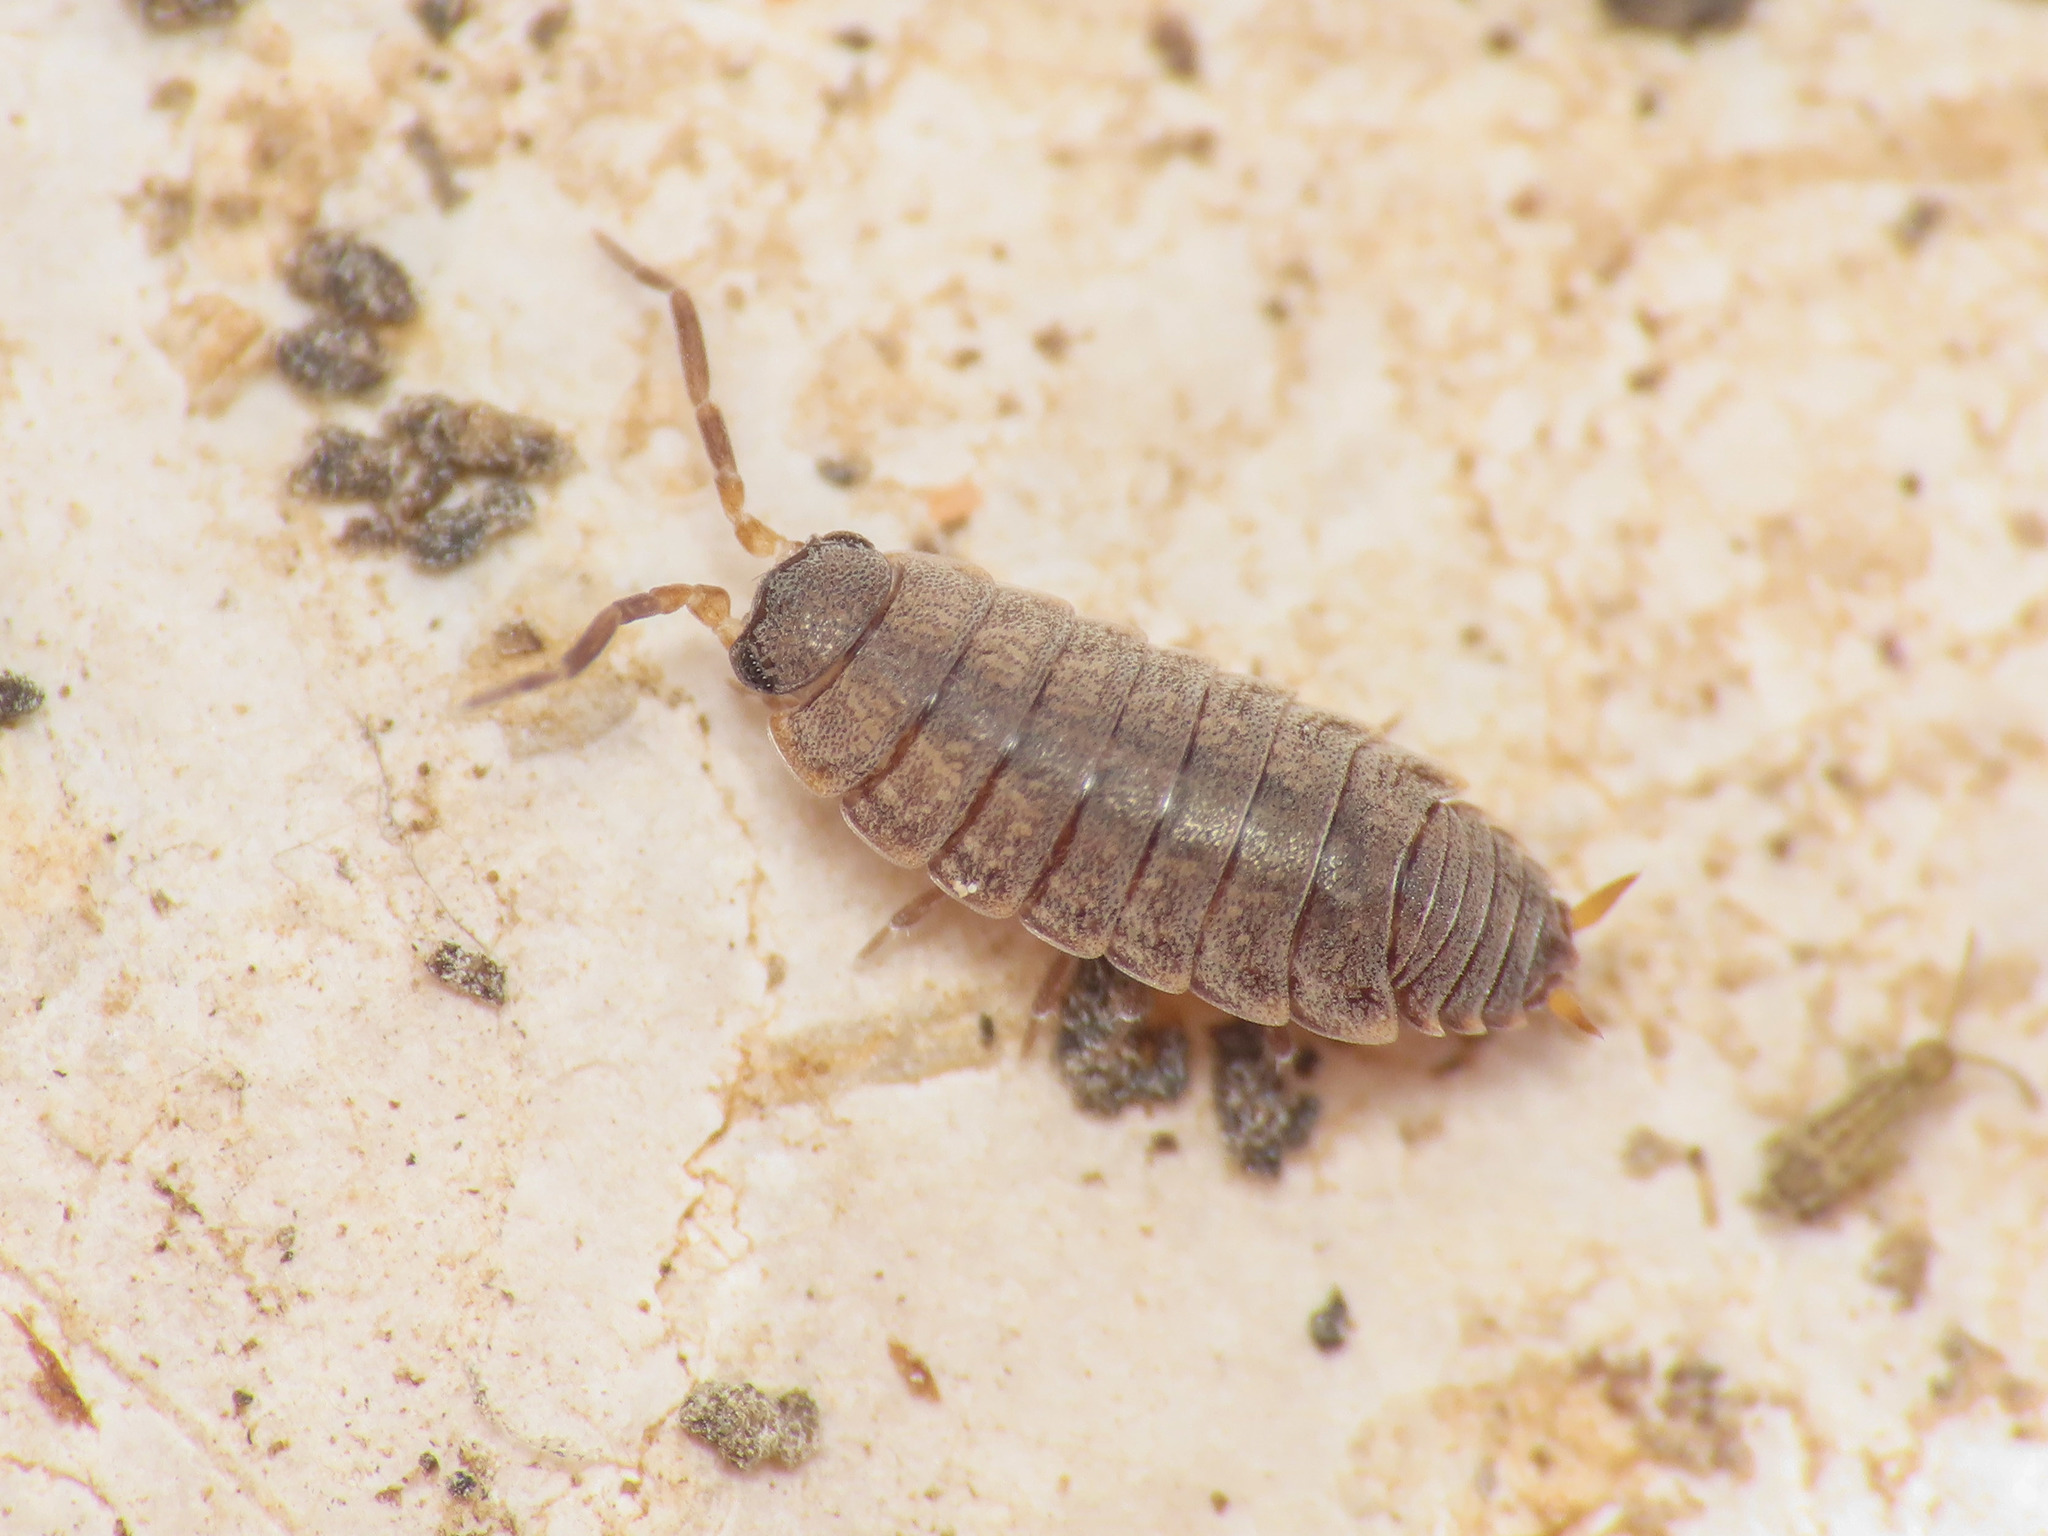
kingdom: Animalia
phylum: Arthropoda
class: Malacostraca
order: Isopoda
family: Porcellionidae
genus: Porcellionides
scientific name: Porcellionides aternanus
